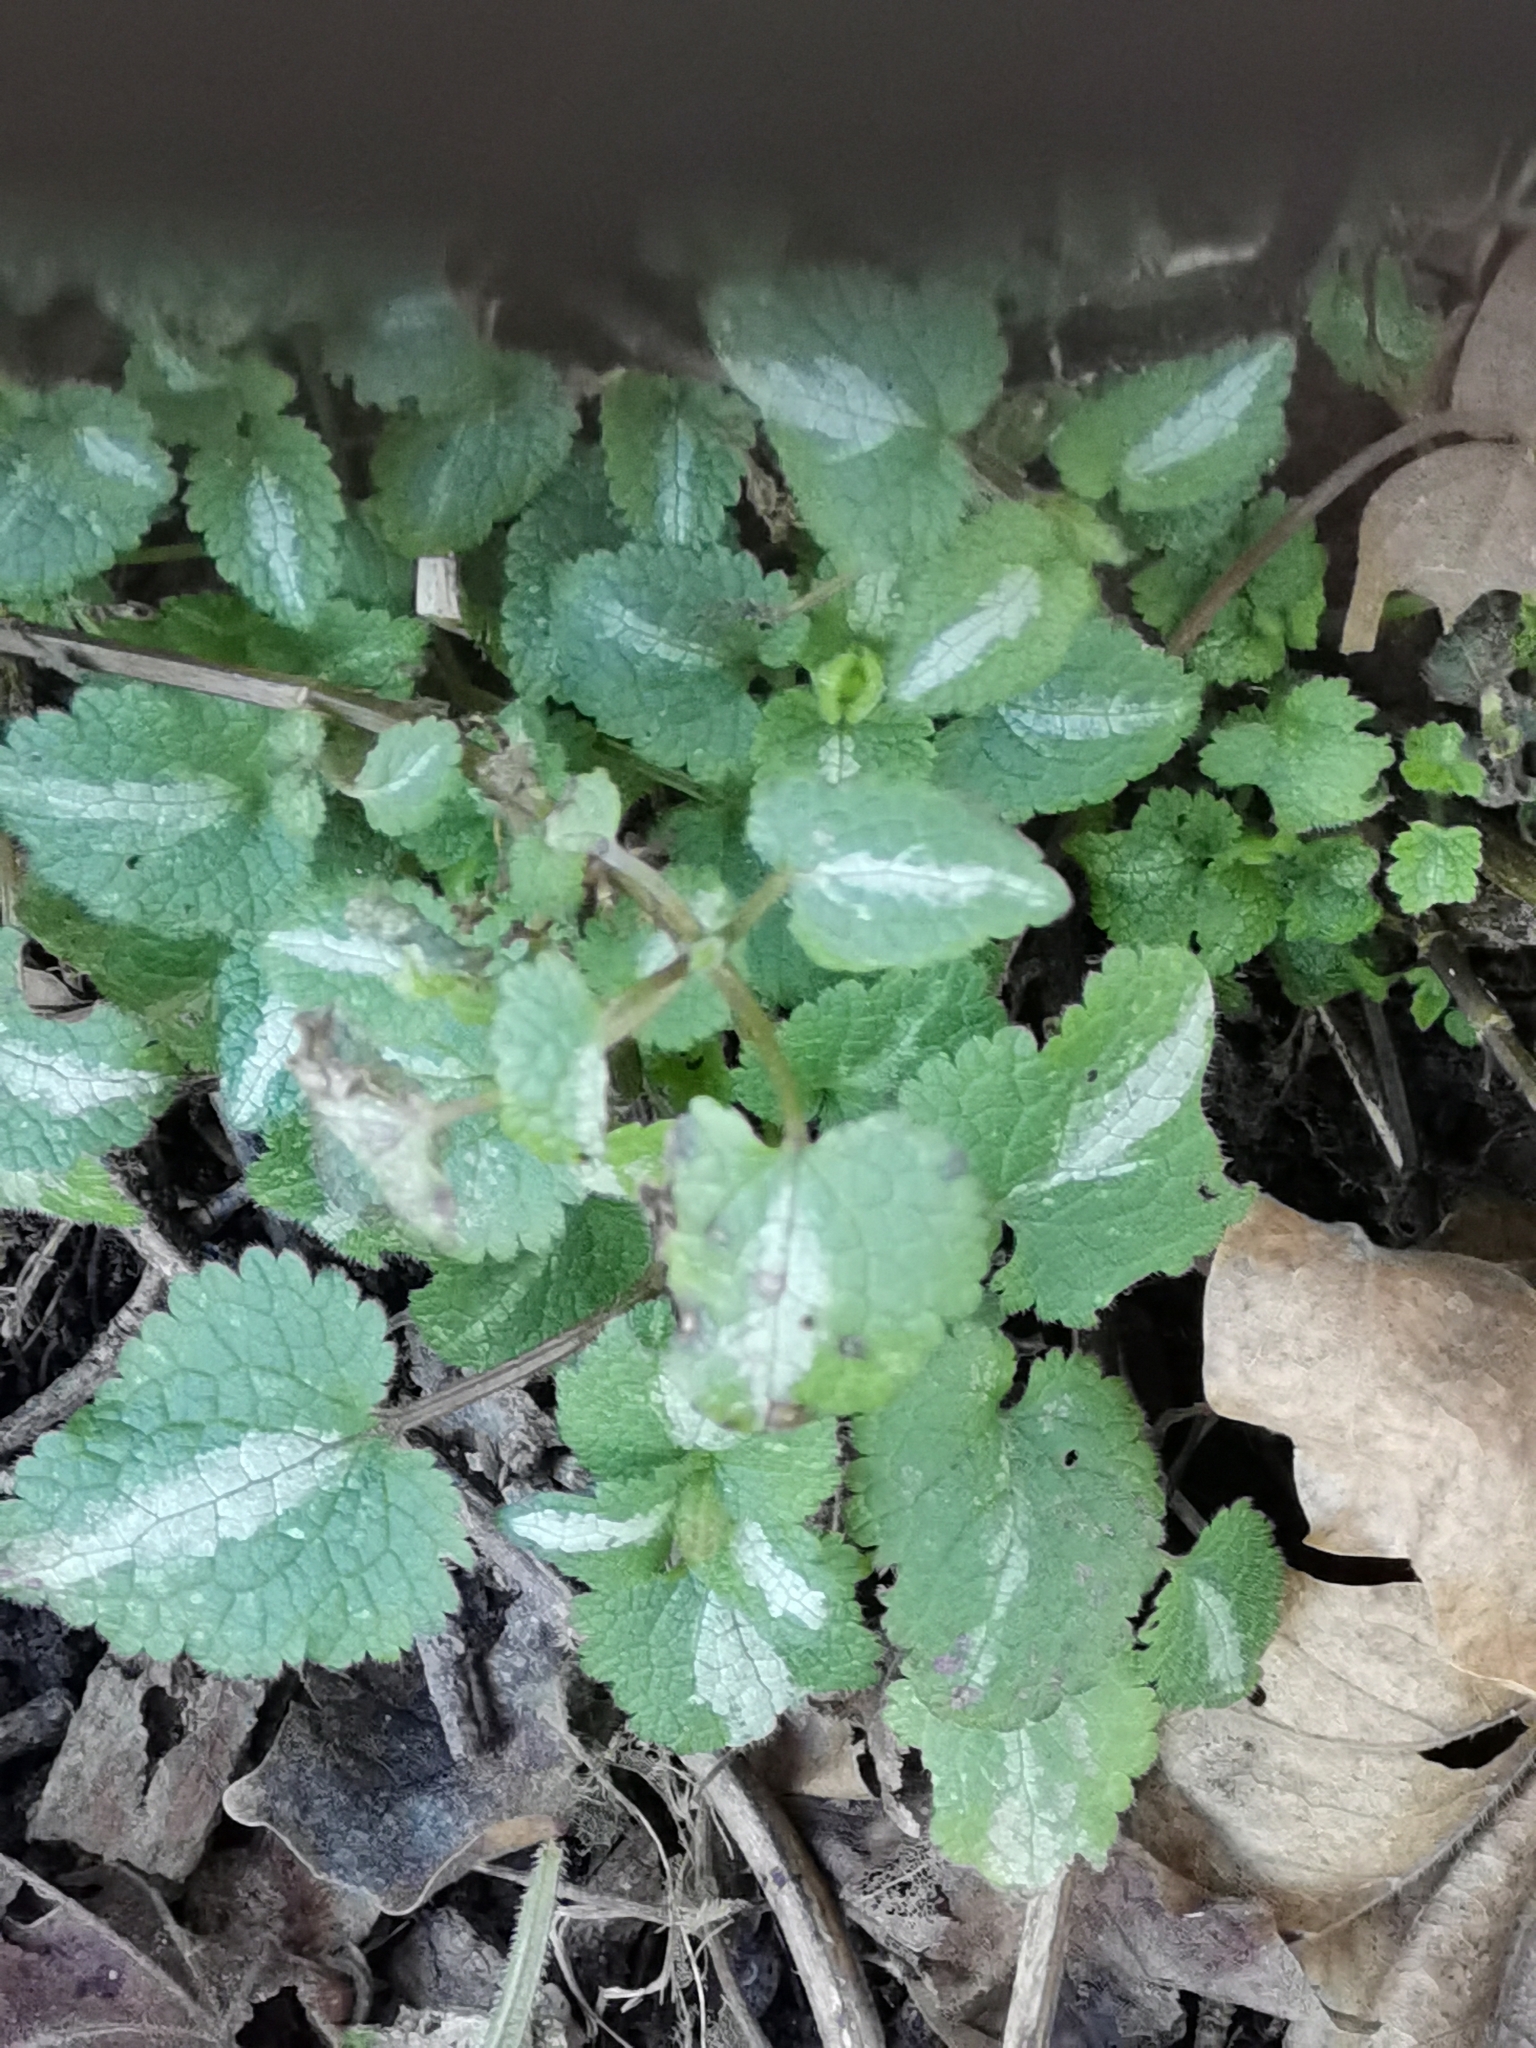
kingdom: Plantae
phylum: Tracheophyta
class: Magnoliopsida
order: Lamiales
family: Lamiaceae
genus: Lamium
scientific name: Lamium maculatum
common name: Spotted dead-nettle
